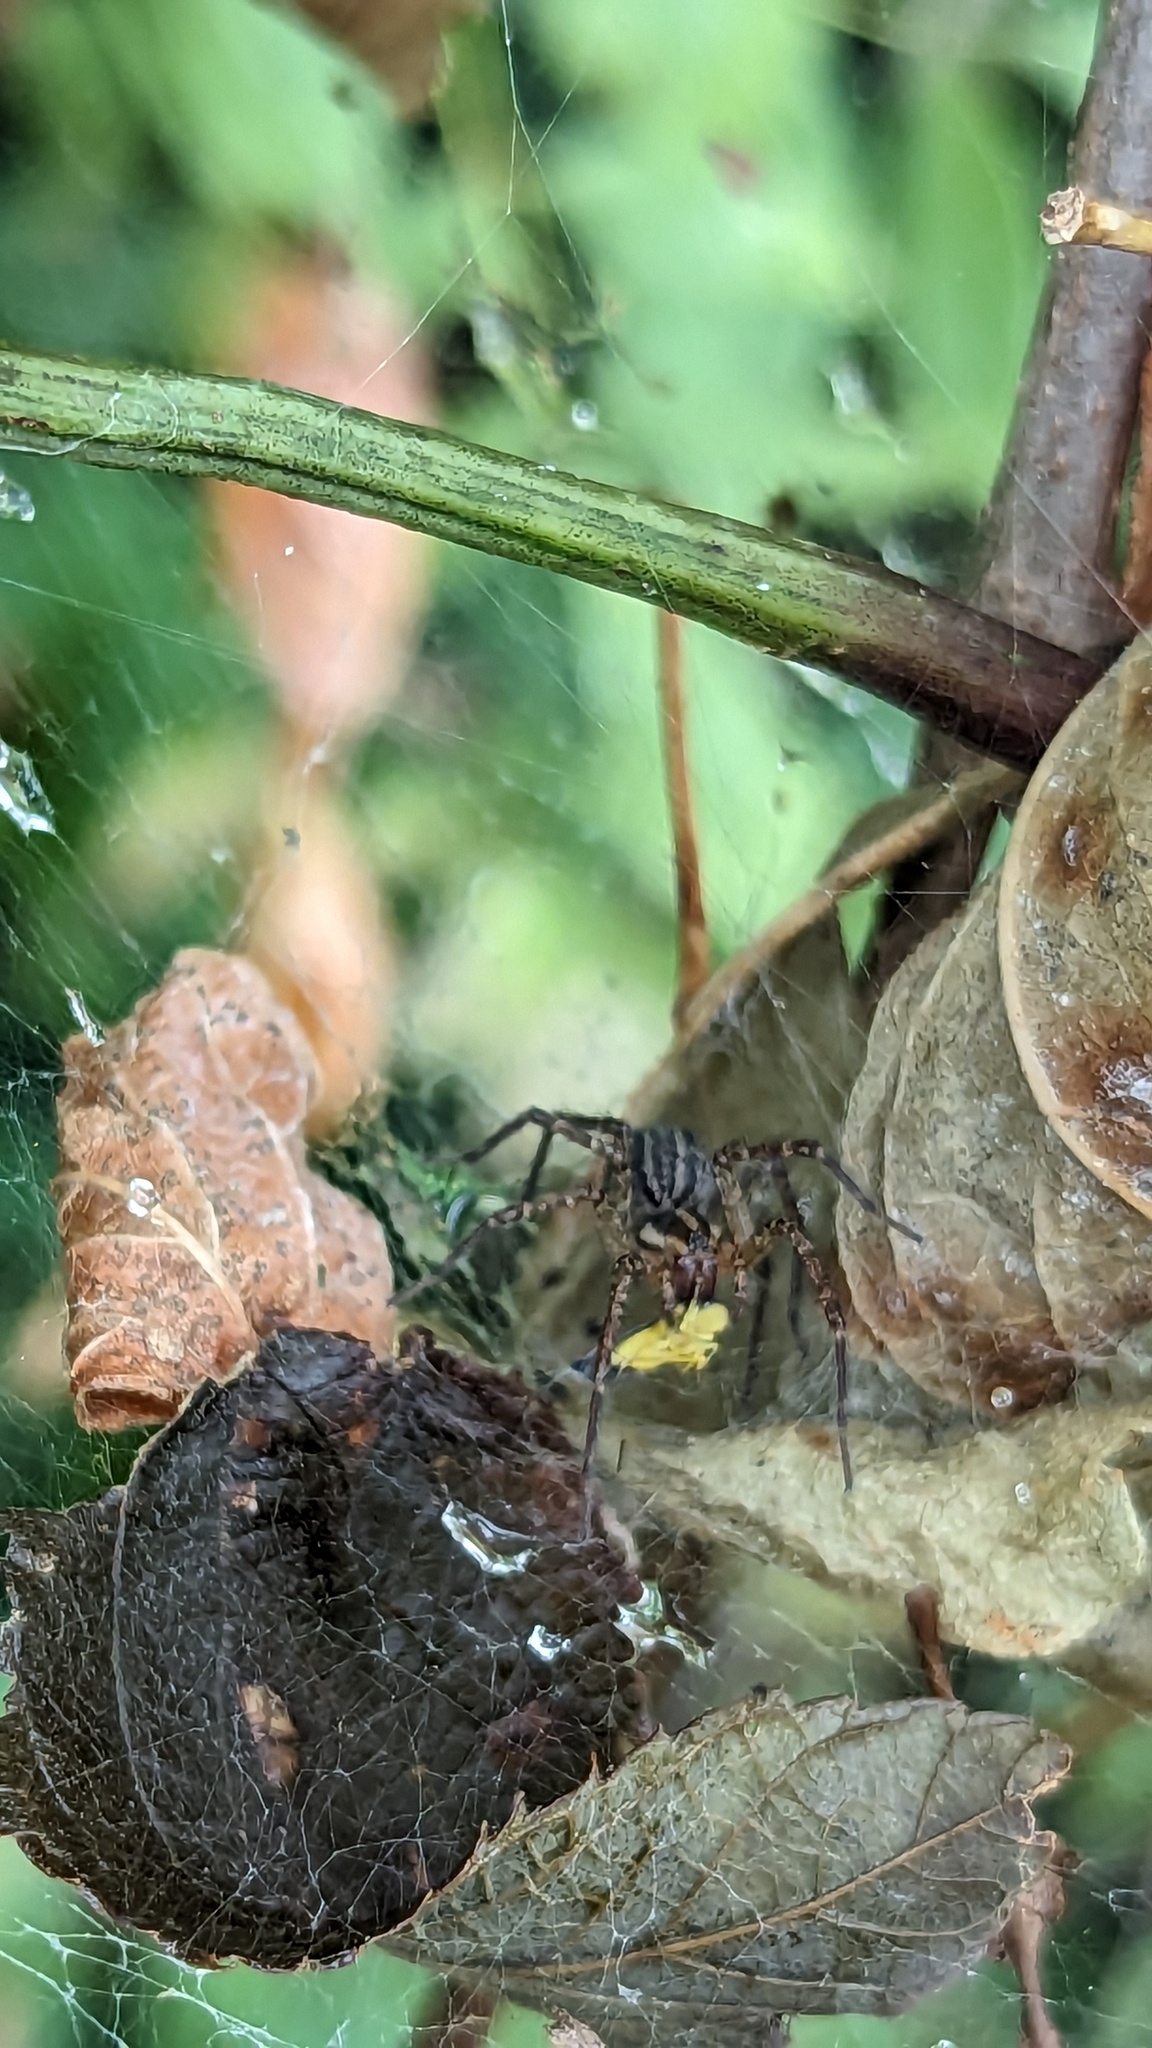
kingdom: Animalia
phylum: Arthropoda
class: Arachnida
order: Araneae
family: Agelenidae
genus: Agelenopsis
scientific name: Agelenopsis
